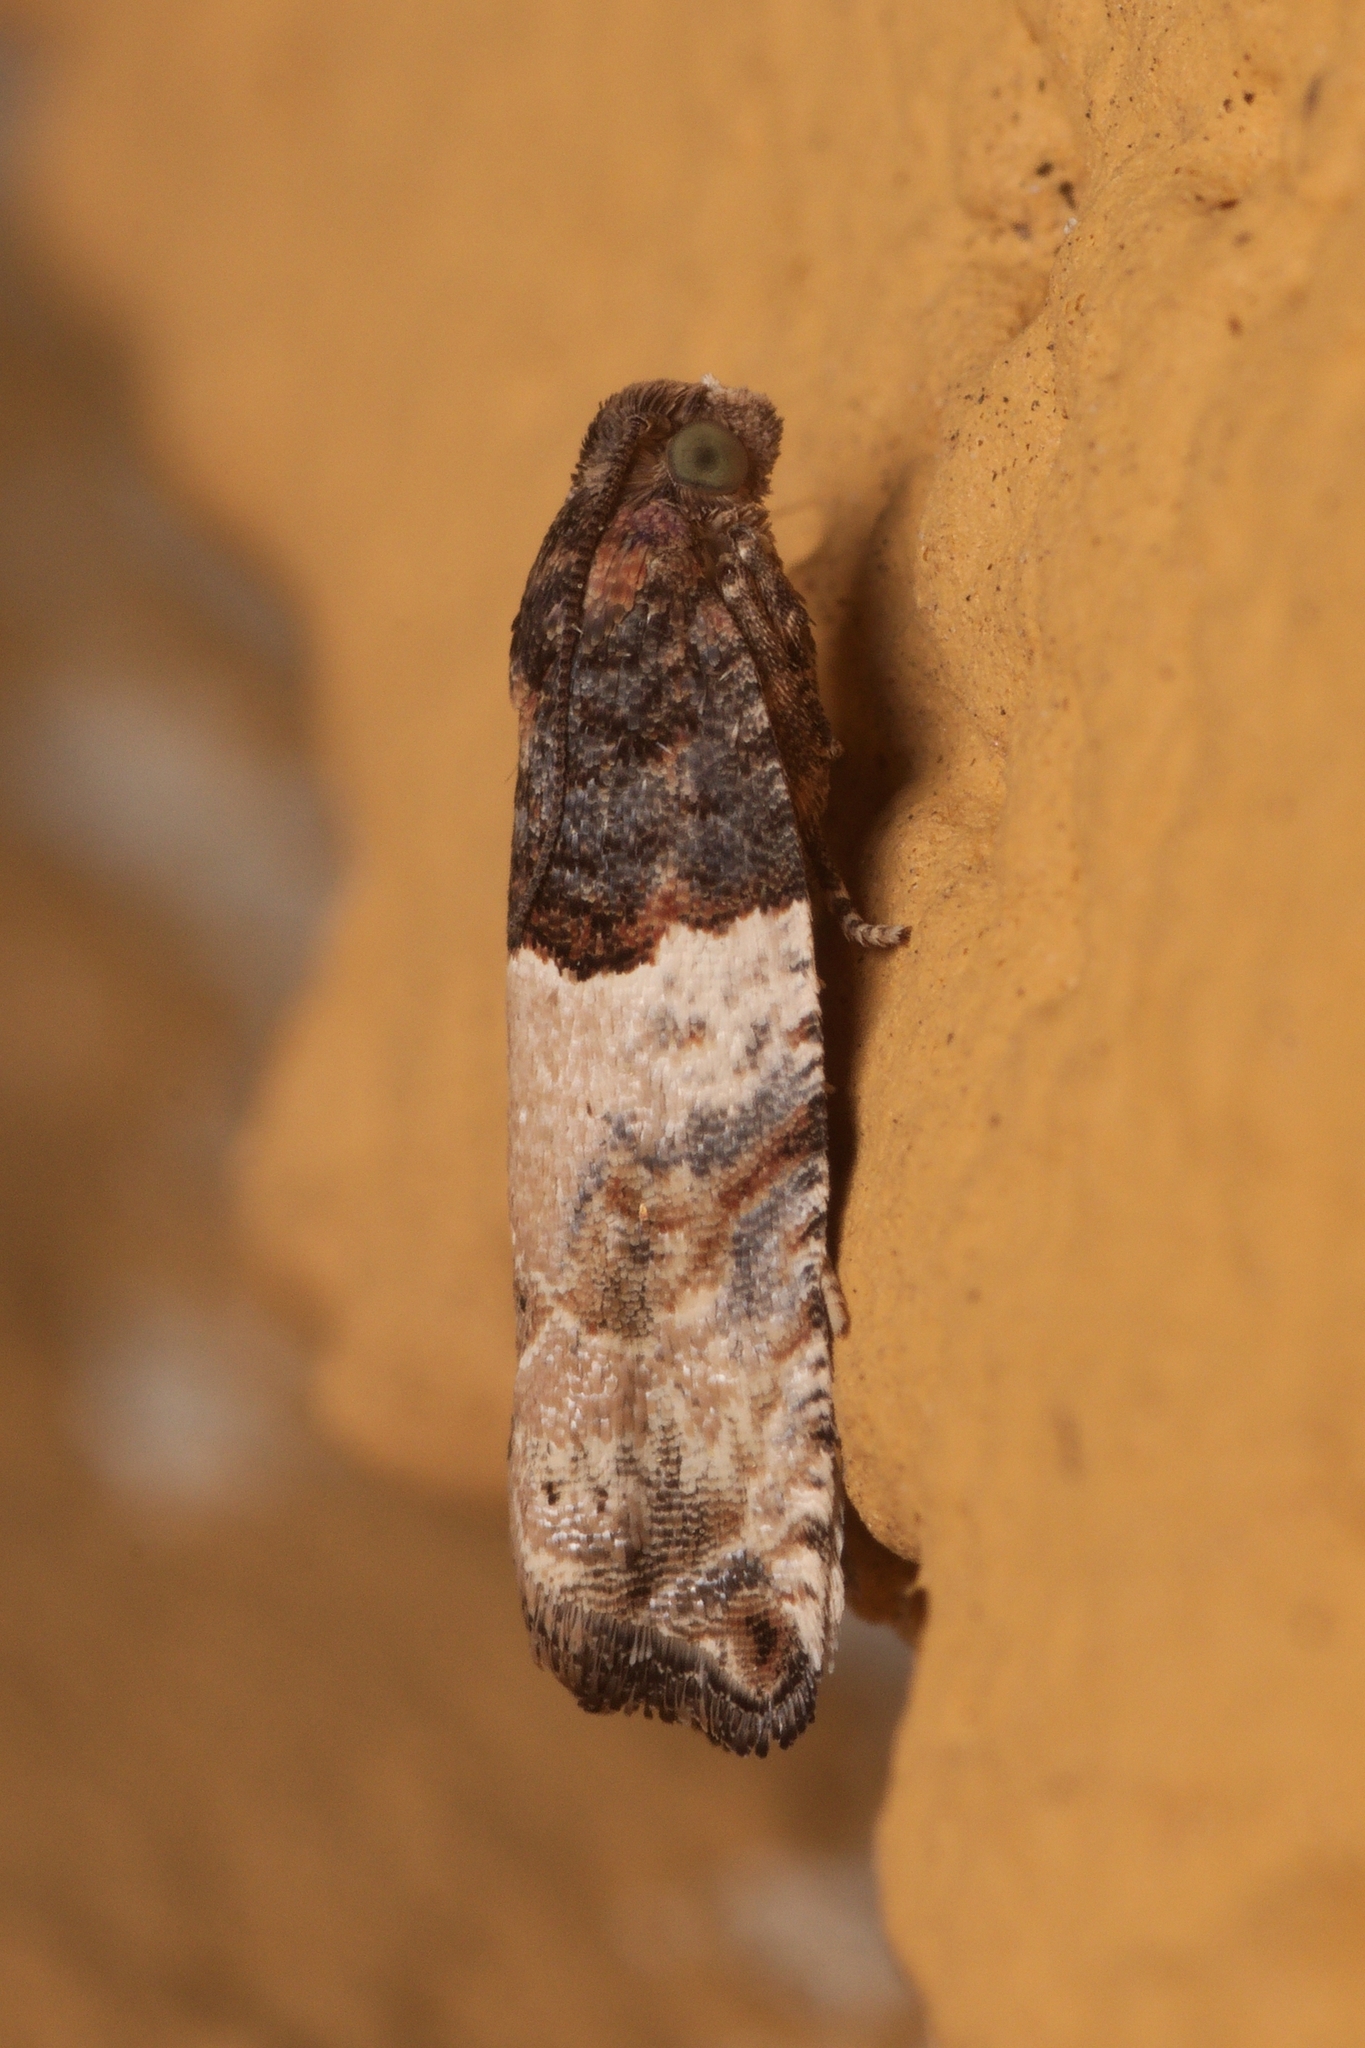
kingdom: Animalia
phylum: Arthropoda
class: Insecta
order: Lepidoptera
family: Tortricidae
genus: Gypsonoma
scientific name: Gypsonoma aceriana
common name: Poplar twig borer
